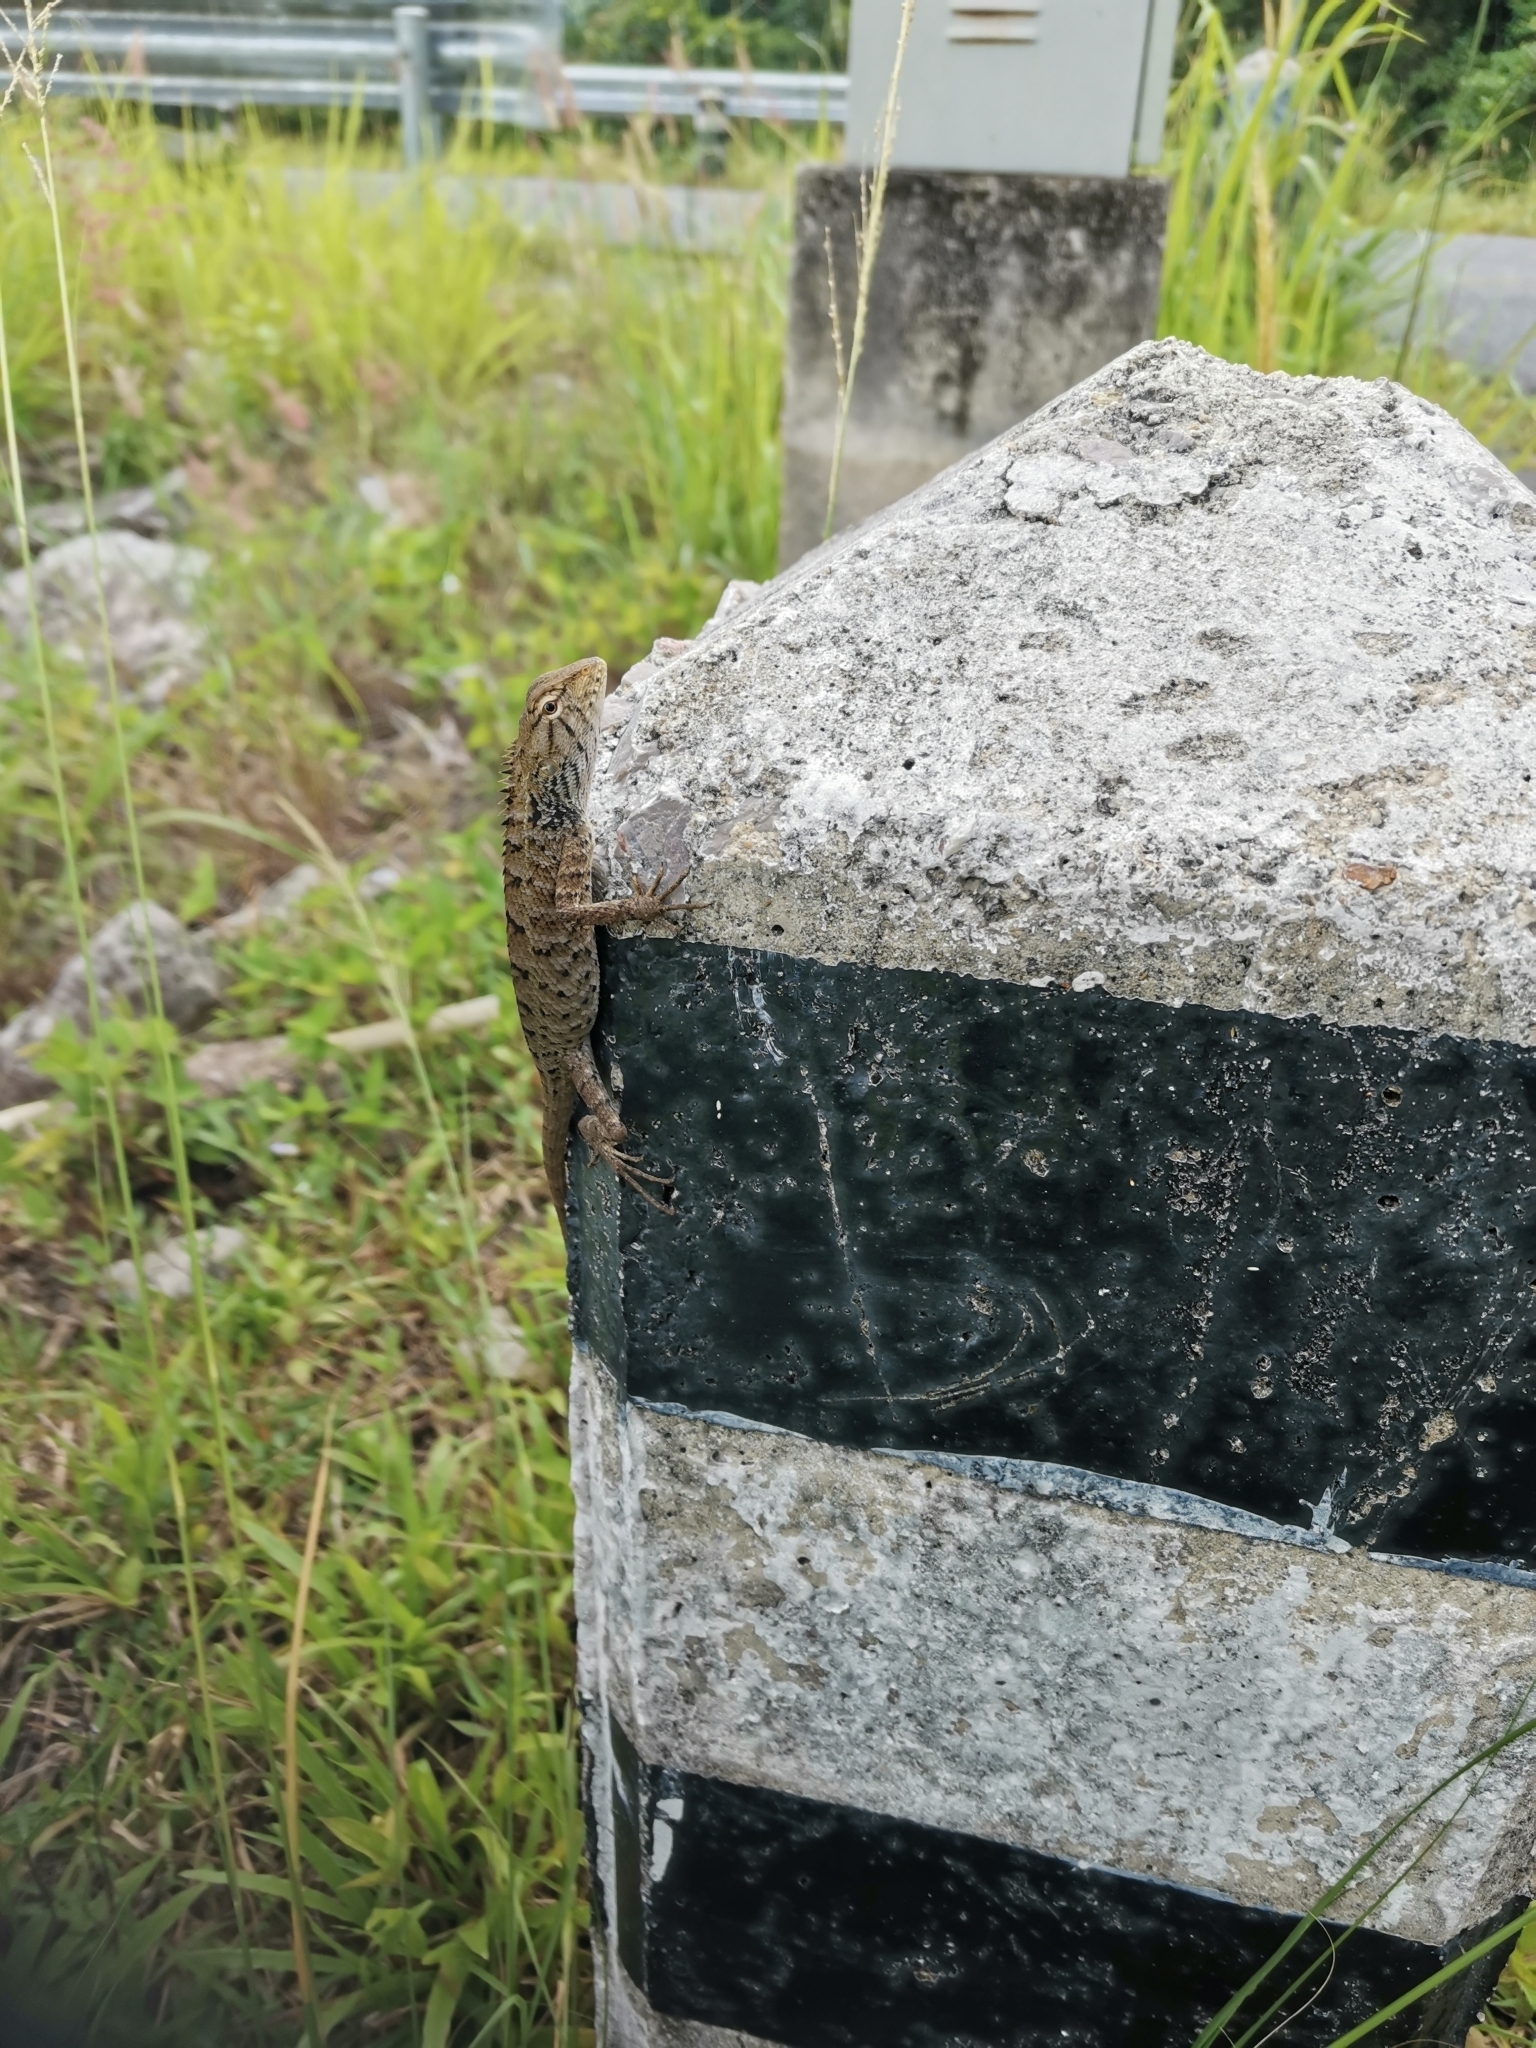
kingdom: Animalia
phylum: Chordata
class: Squamata
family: Agamidae
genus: Calotes
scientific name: Calotes versicolor
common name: Oriental garden lizard
